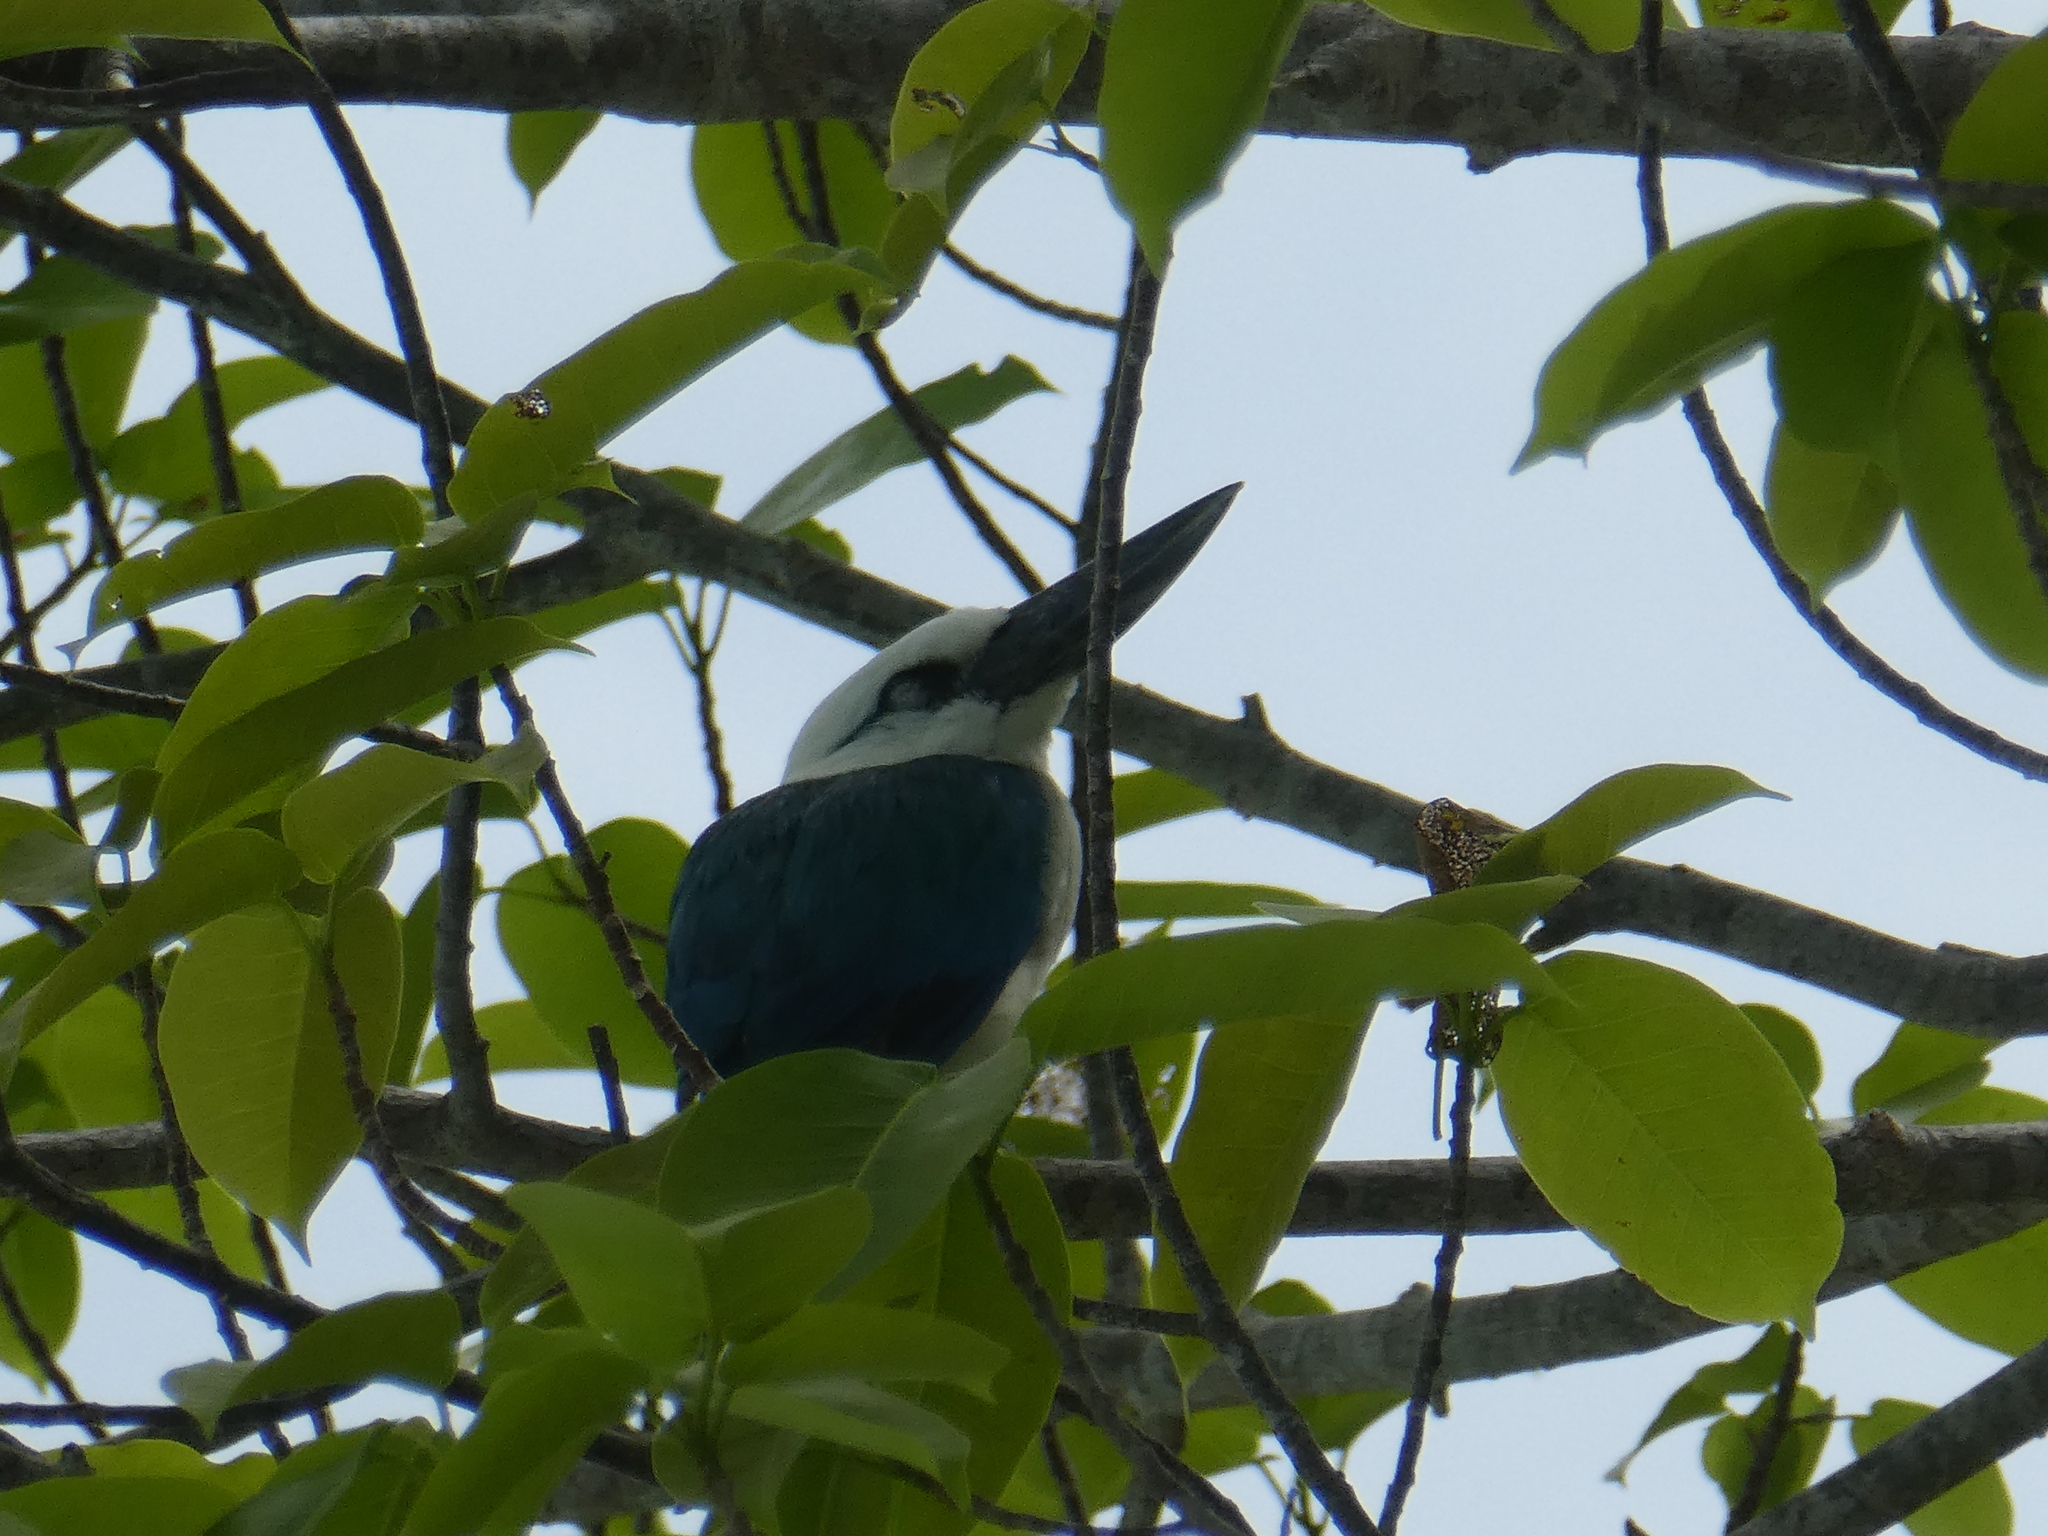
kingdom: Animalia
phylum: Chordata
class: Aves
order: Coraciiformes
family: Alcedinidae
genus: Todiramphus
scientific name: Todiramphus saurophagus
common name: Beach kingfisher
